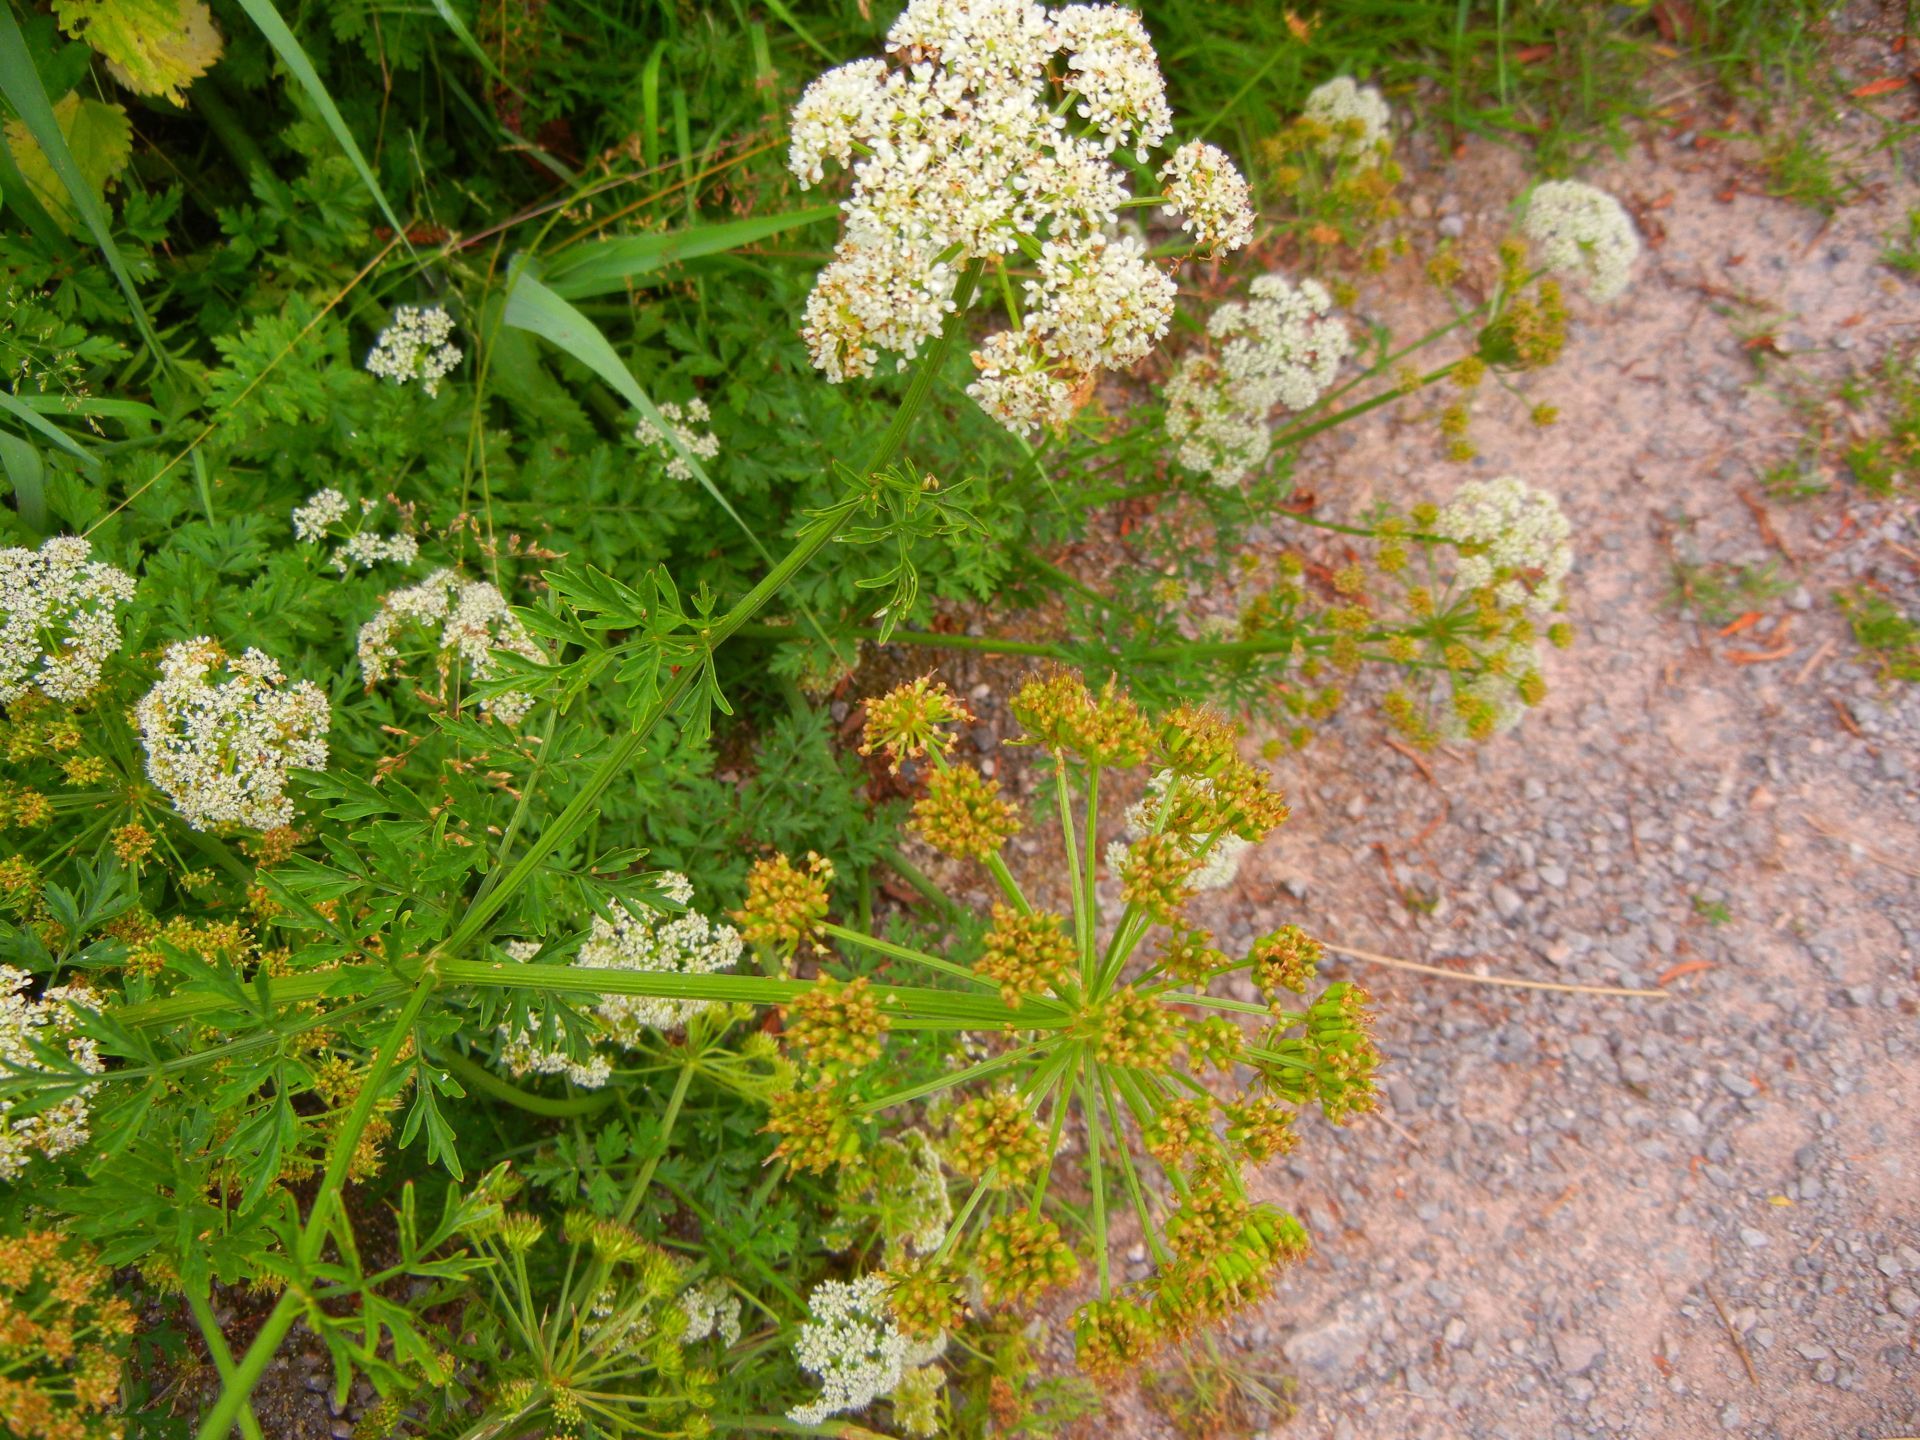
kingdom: Plantae
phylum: Tracheophyta
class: Magnoliopsida
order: Apiales
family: Apiaceae
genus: Oenanthe
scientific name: Oenanthe crocata
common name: Hemlock water-dropwort
